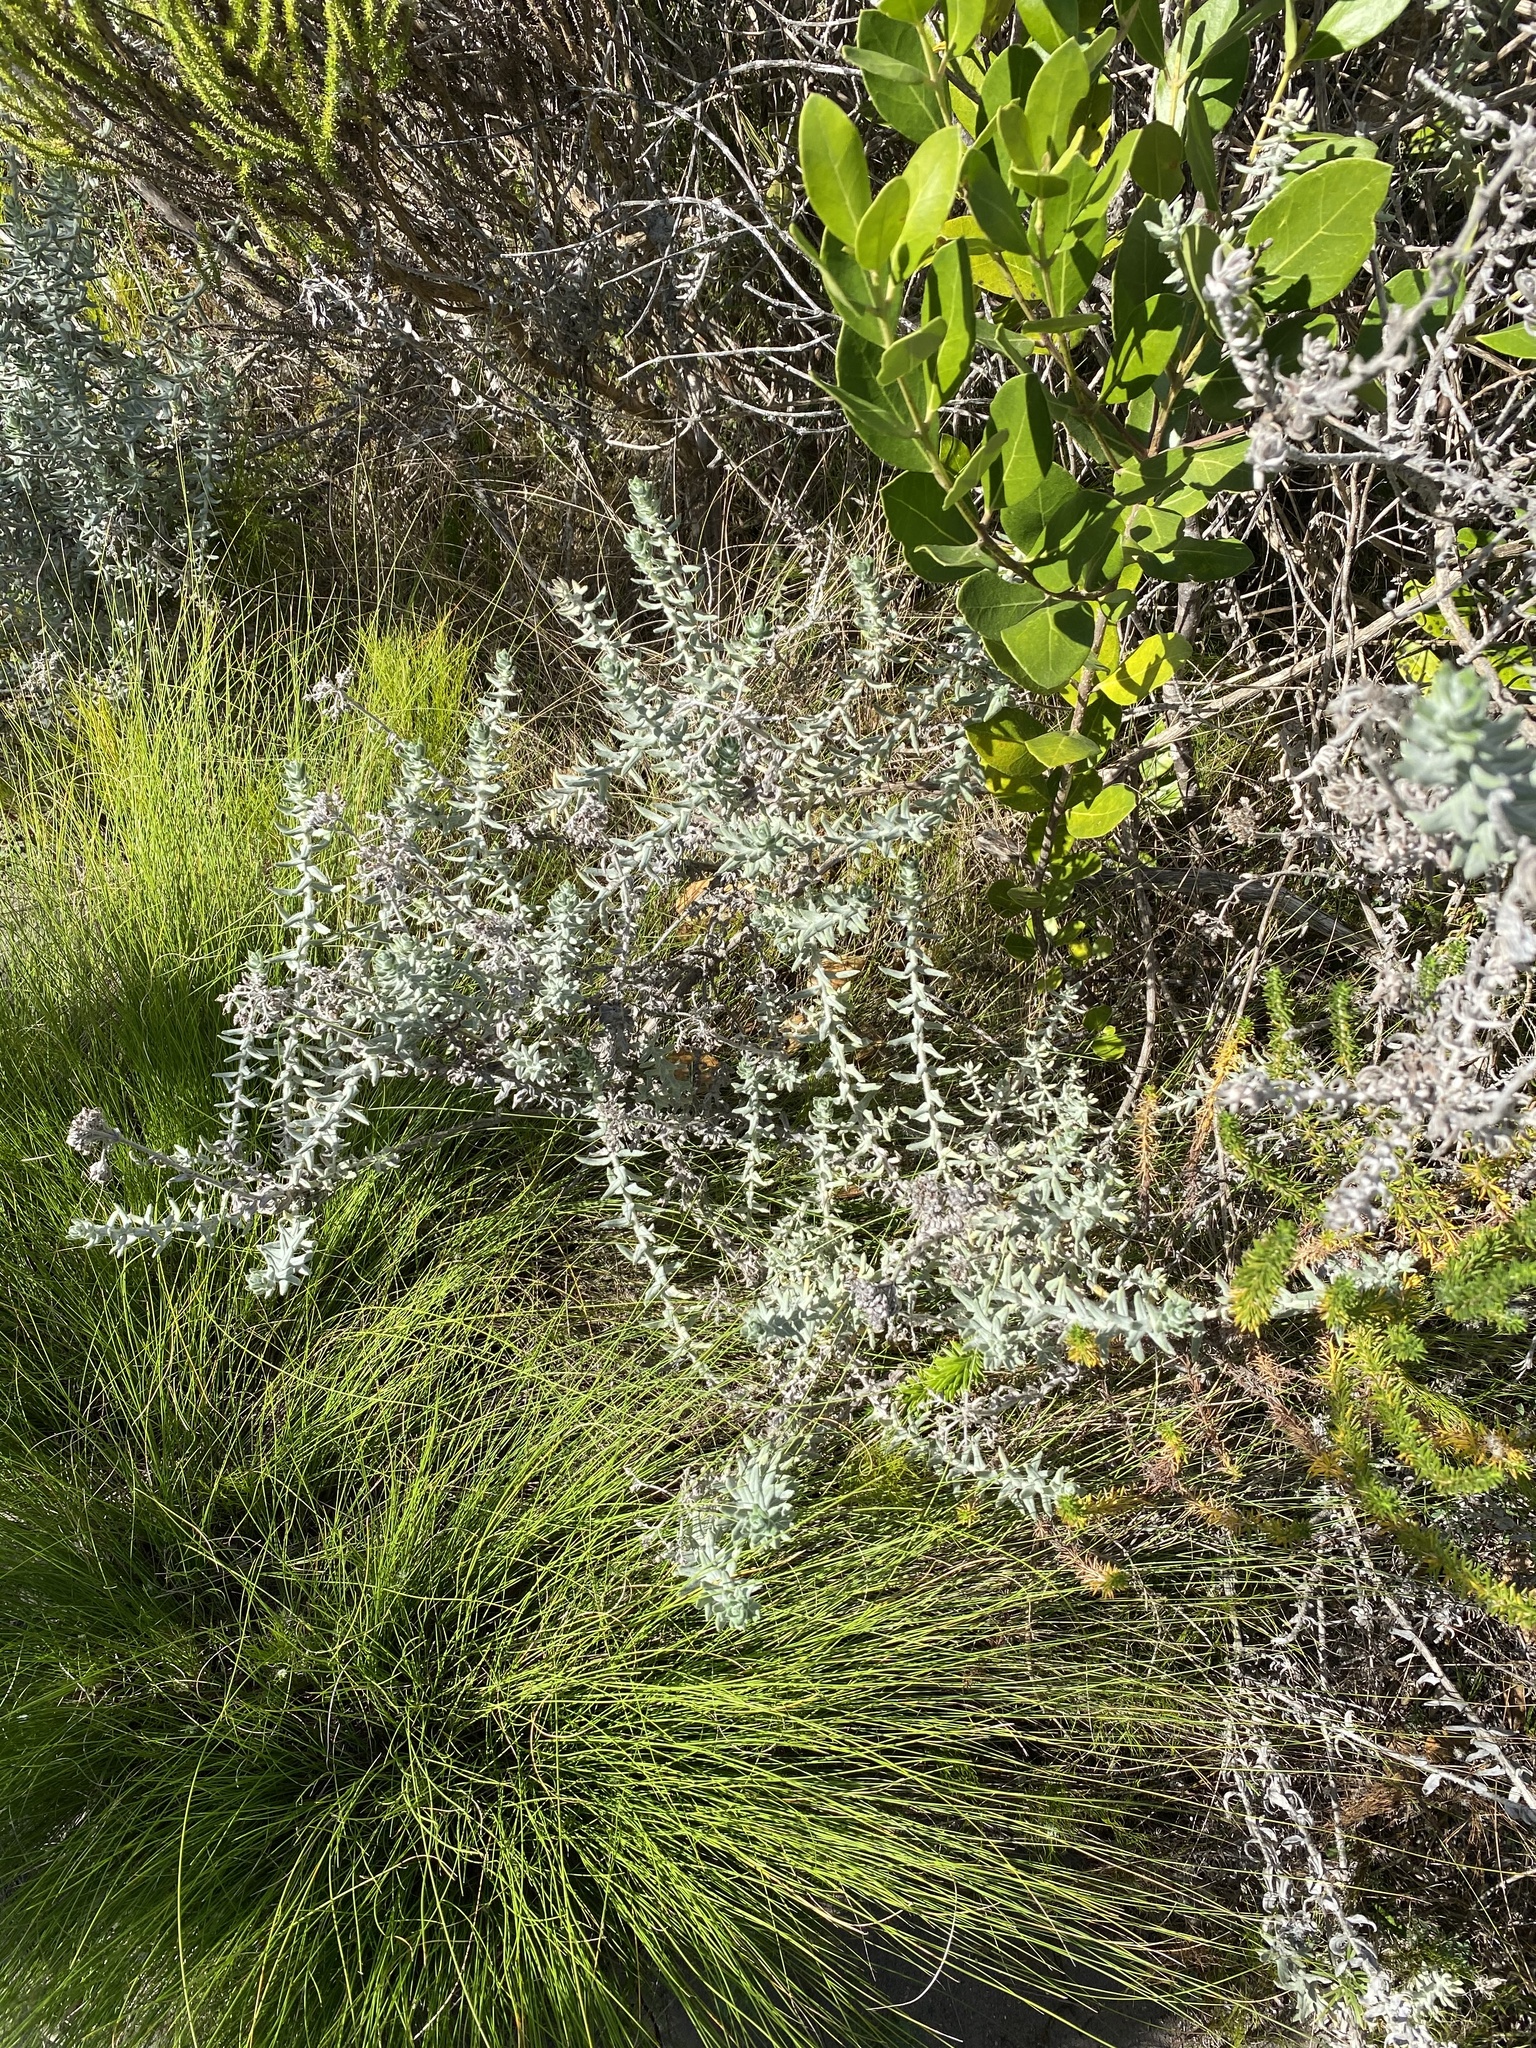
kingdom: Plantae
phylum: Tracheophyta
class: Magnoliopsida
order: Asterales
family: Asteraceae
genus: Helichrysum
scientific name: Helichrysum dasyanthum
